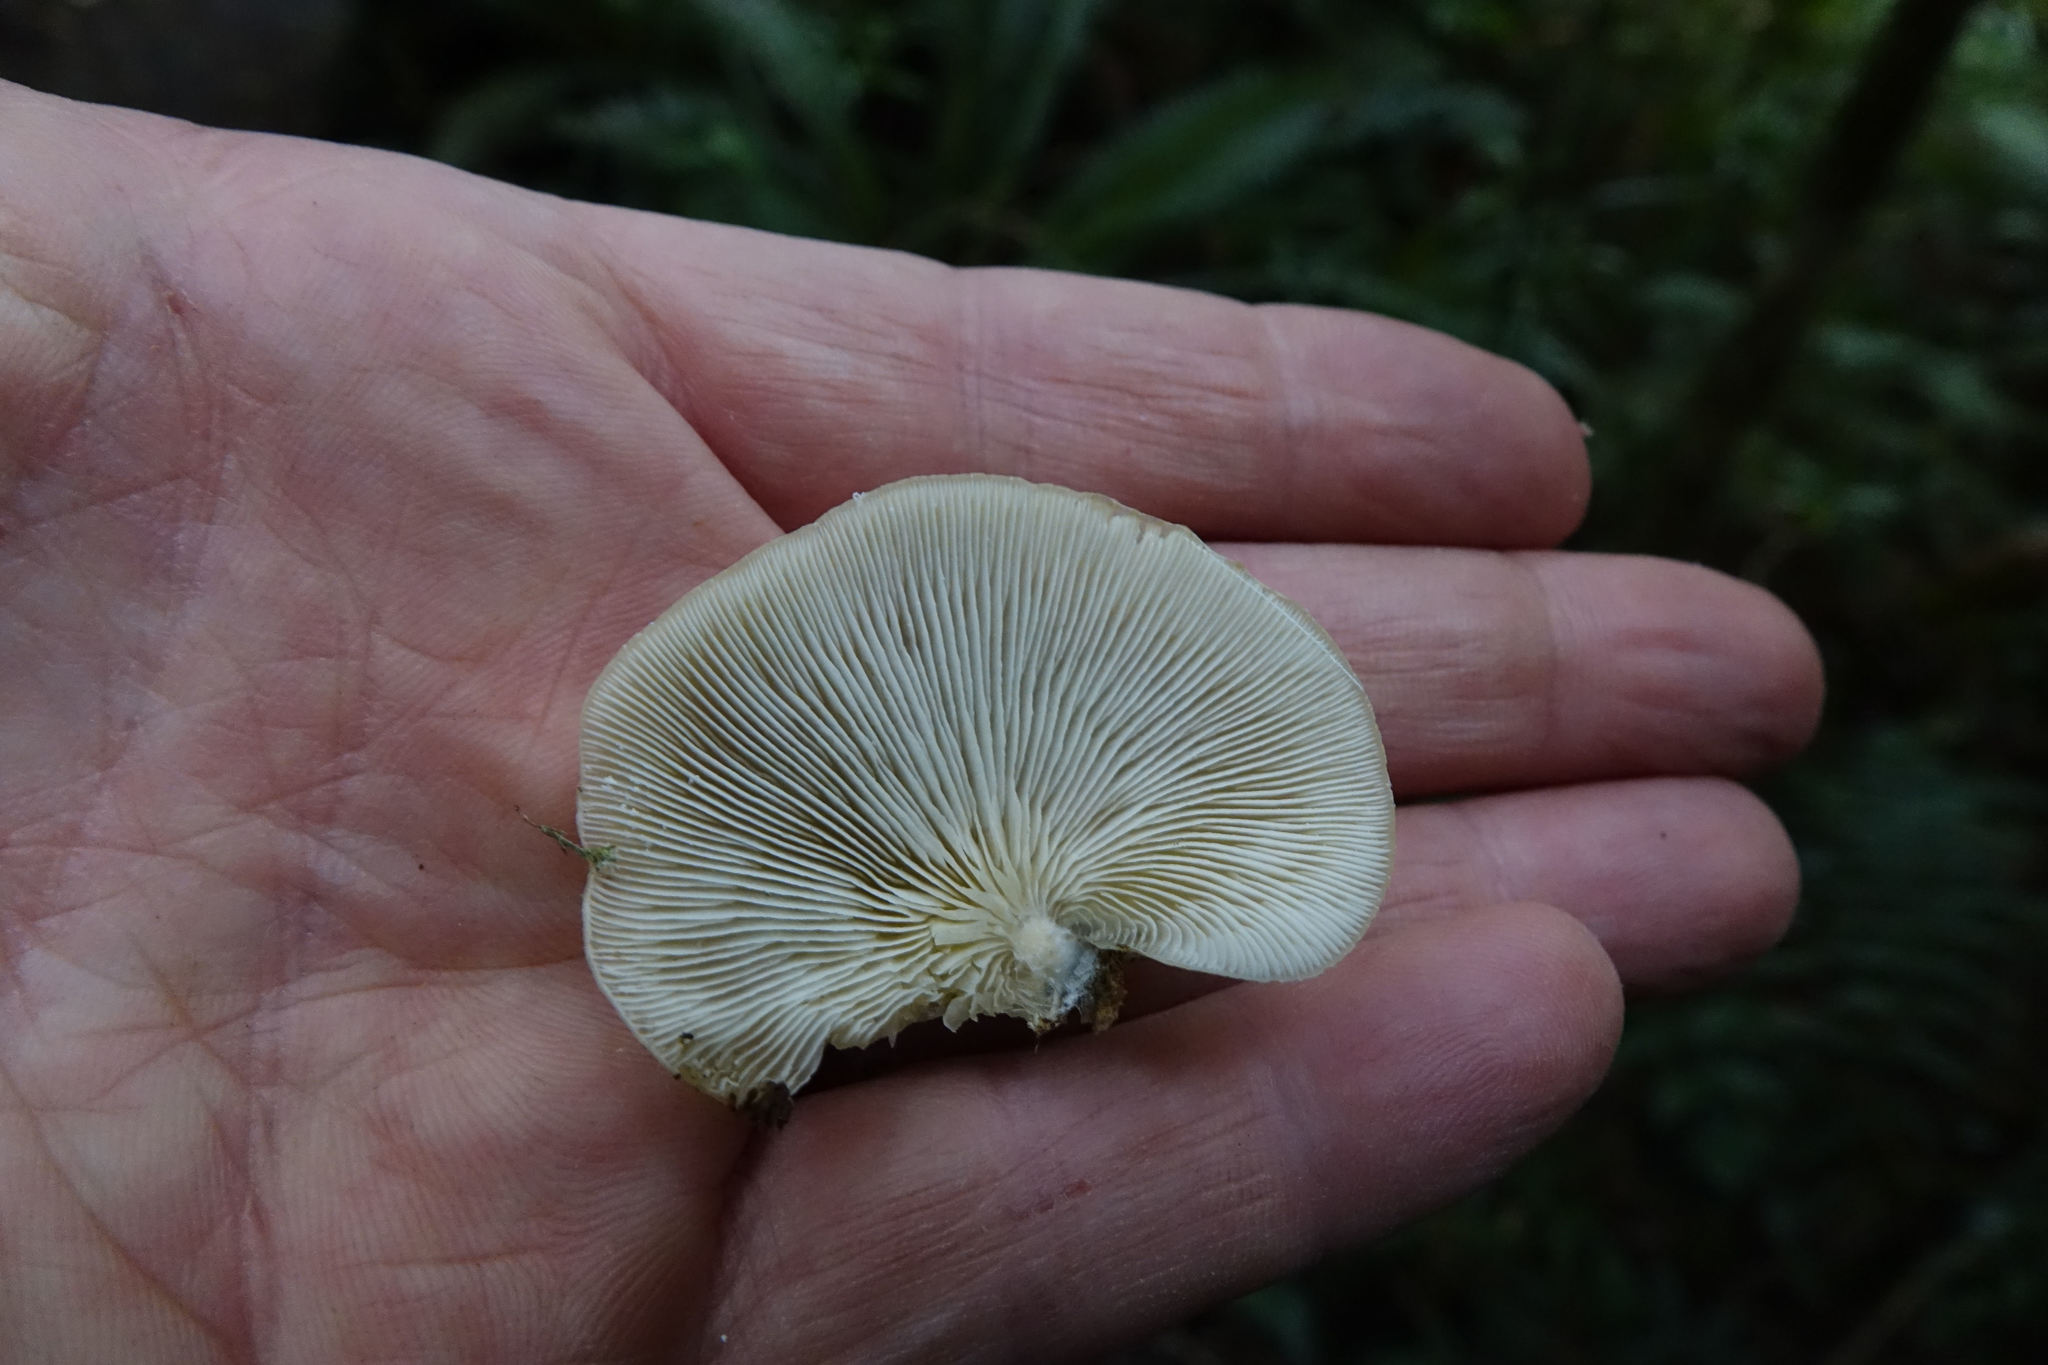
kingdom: Fungi
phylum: Basidiomycota
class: Agaricomycetes
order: Agaricales
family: Tricholomataceae
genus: Conchomyces
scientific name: Conchomyces bursiformis
